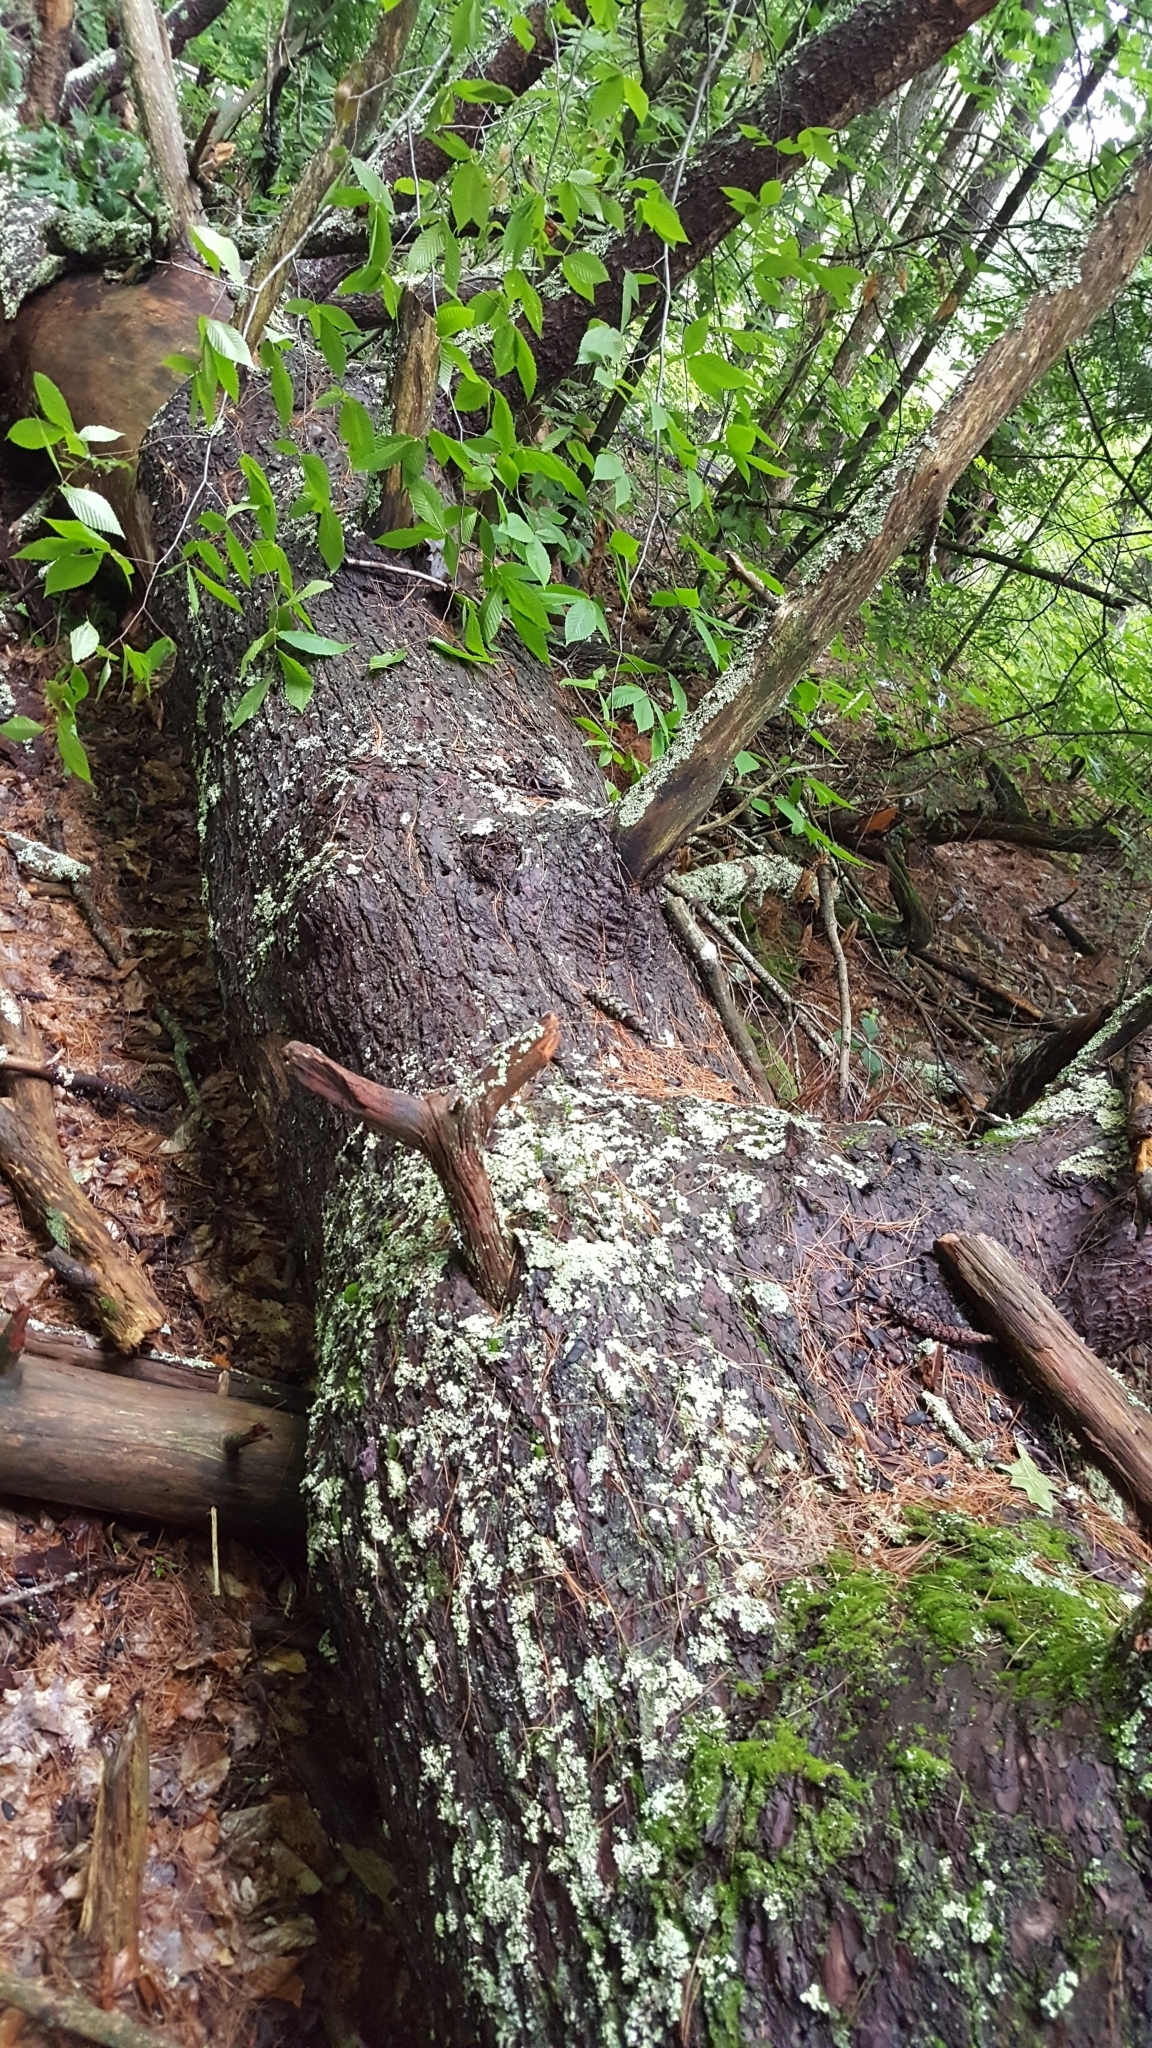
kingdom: Plantae
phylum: Tracheophyta
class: Pinopsida
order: Pinales
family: Pinaceae
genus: Pinus
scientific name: Pinus strobus
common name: Weymouth pine
